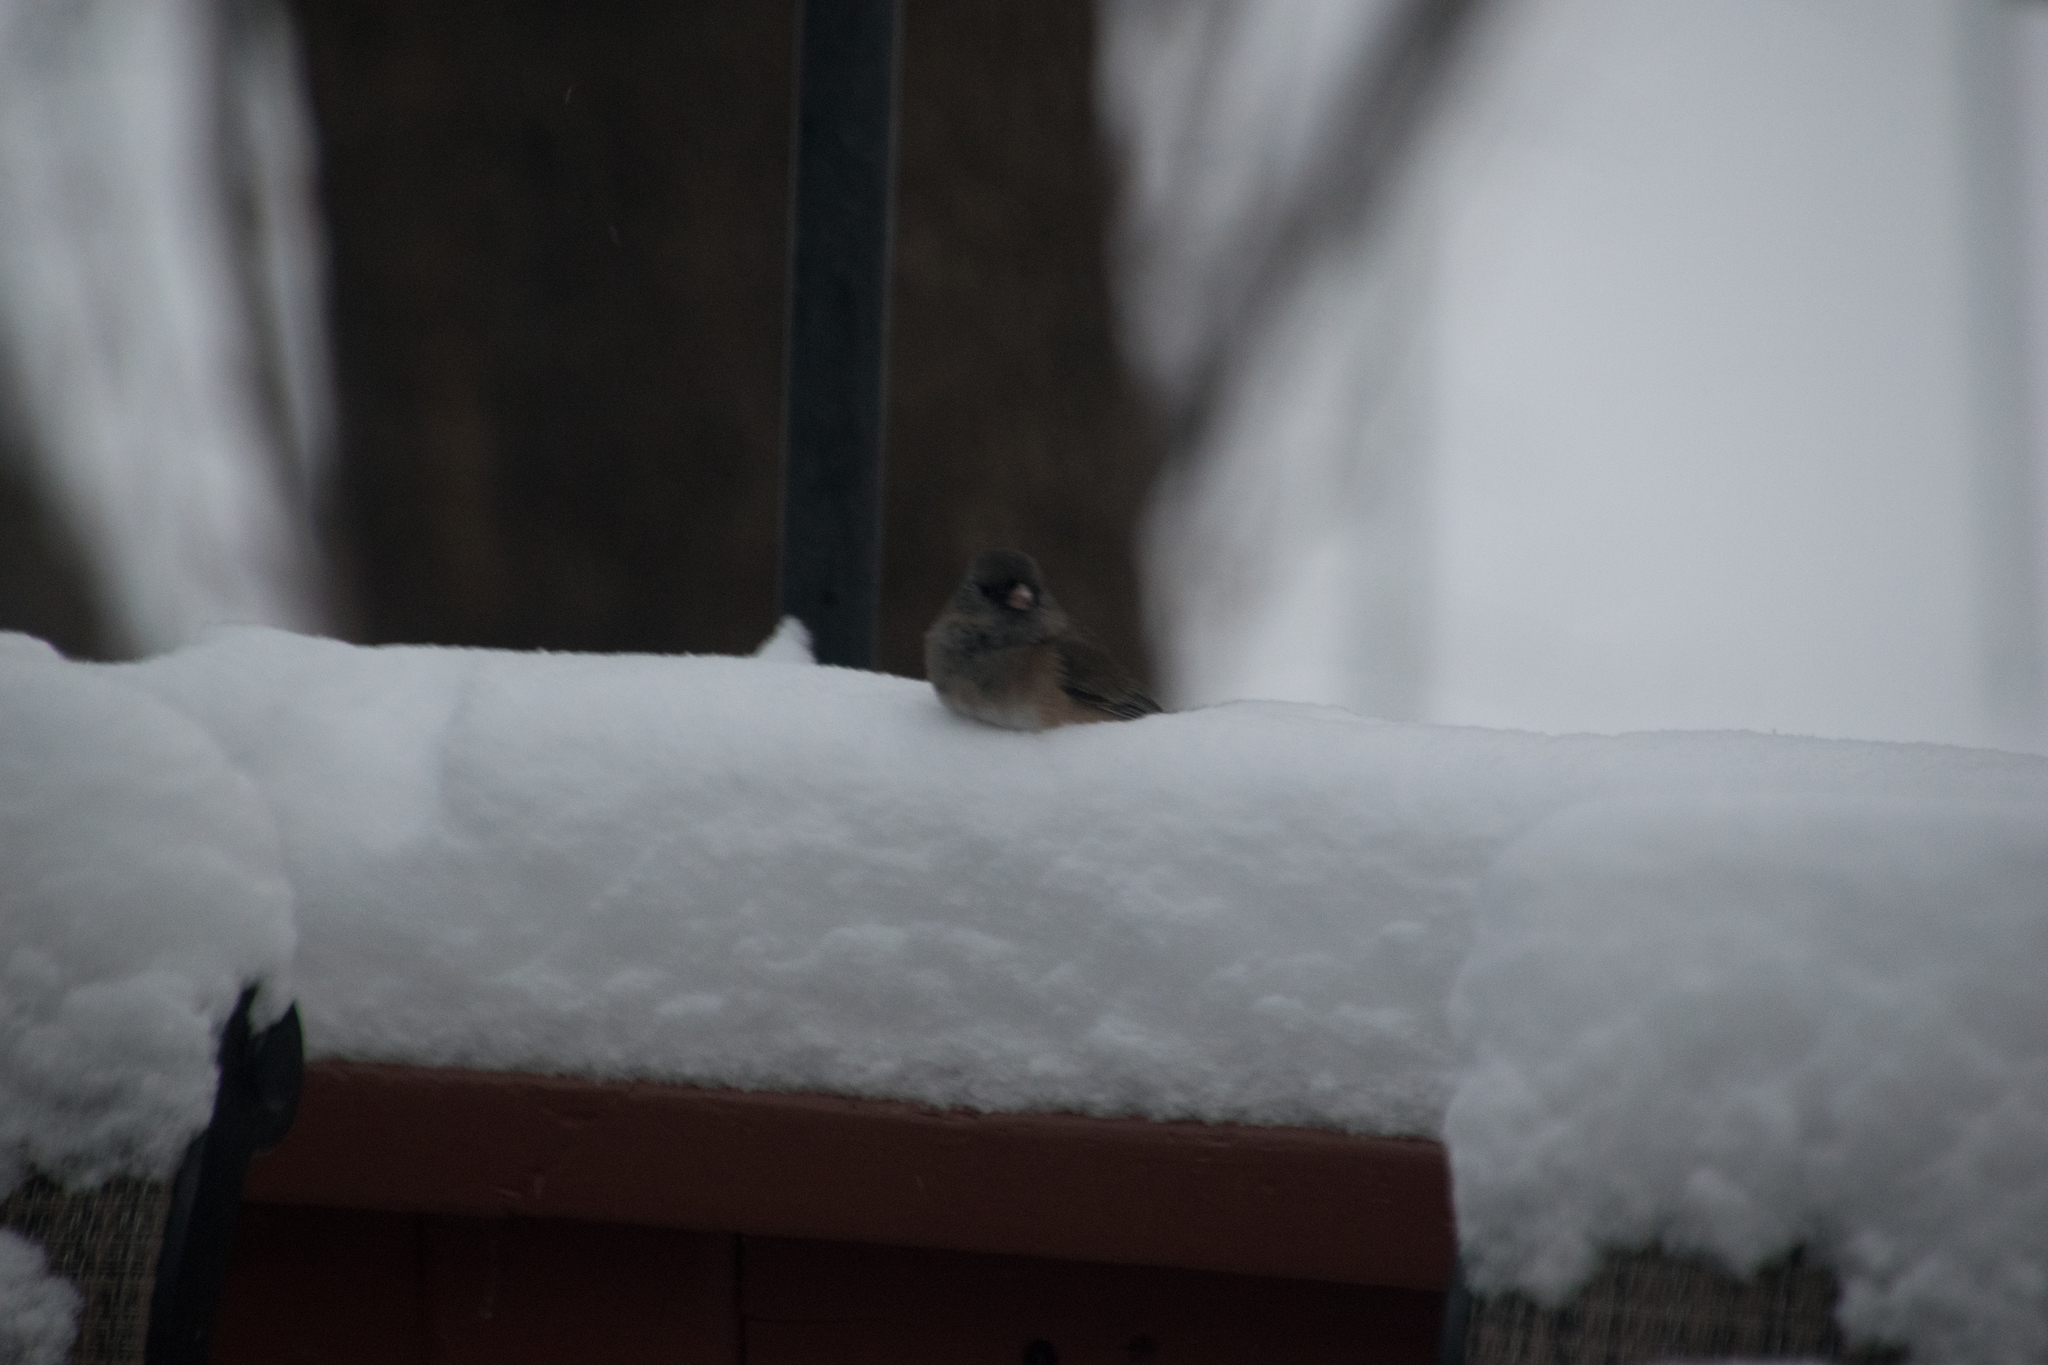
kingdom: Animalia
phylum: Chordata
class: Aves
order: Passeriformes
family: Passerellidae
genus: Junco
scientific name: Junco hyemalis
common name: Dark-eyed junco
